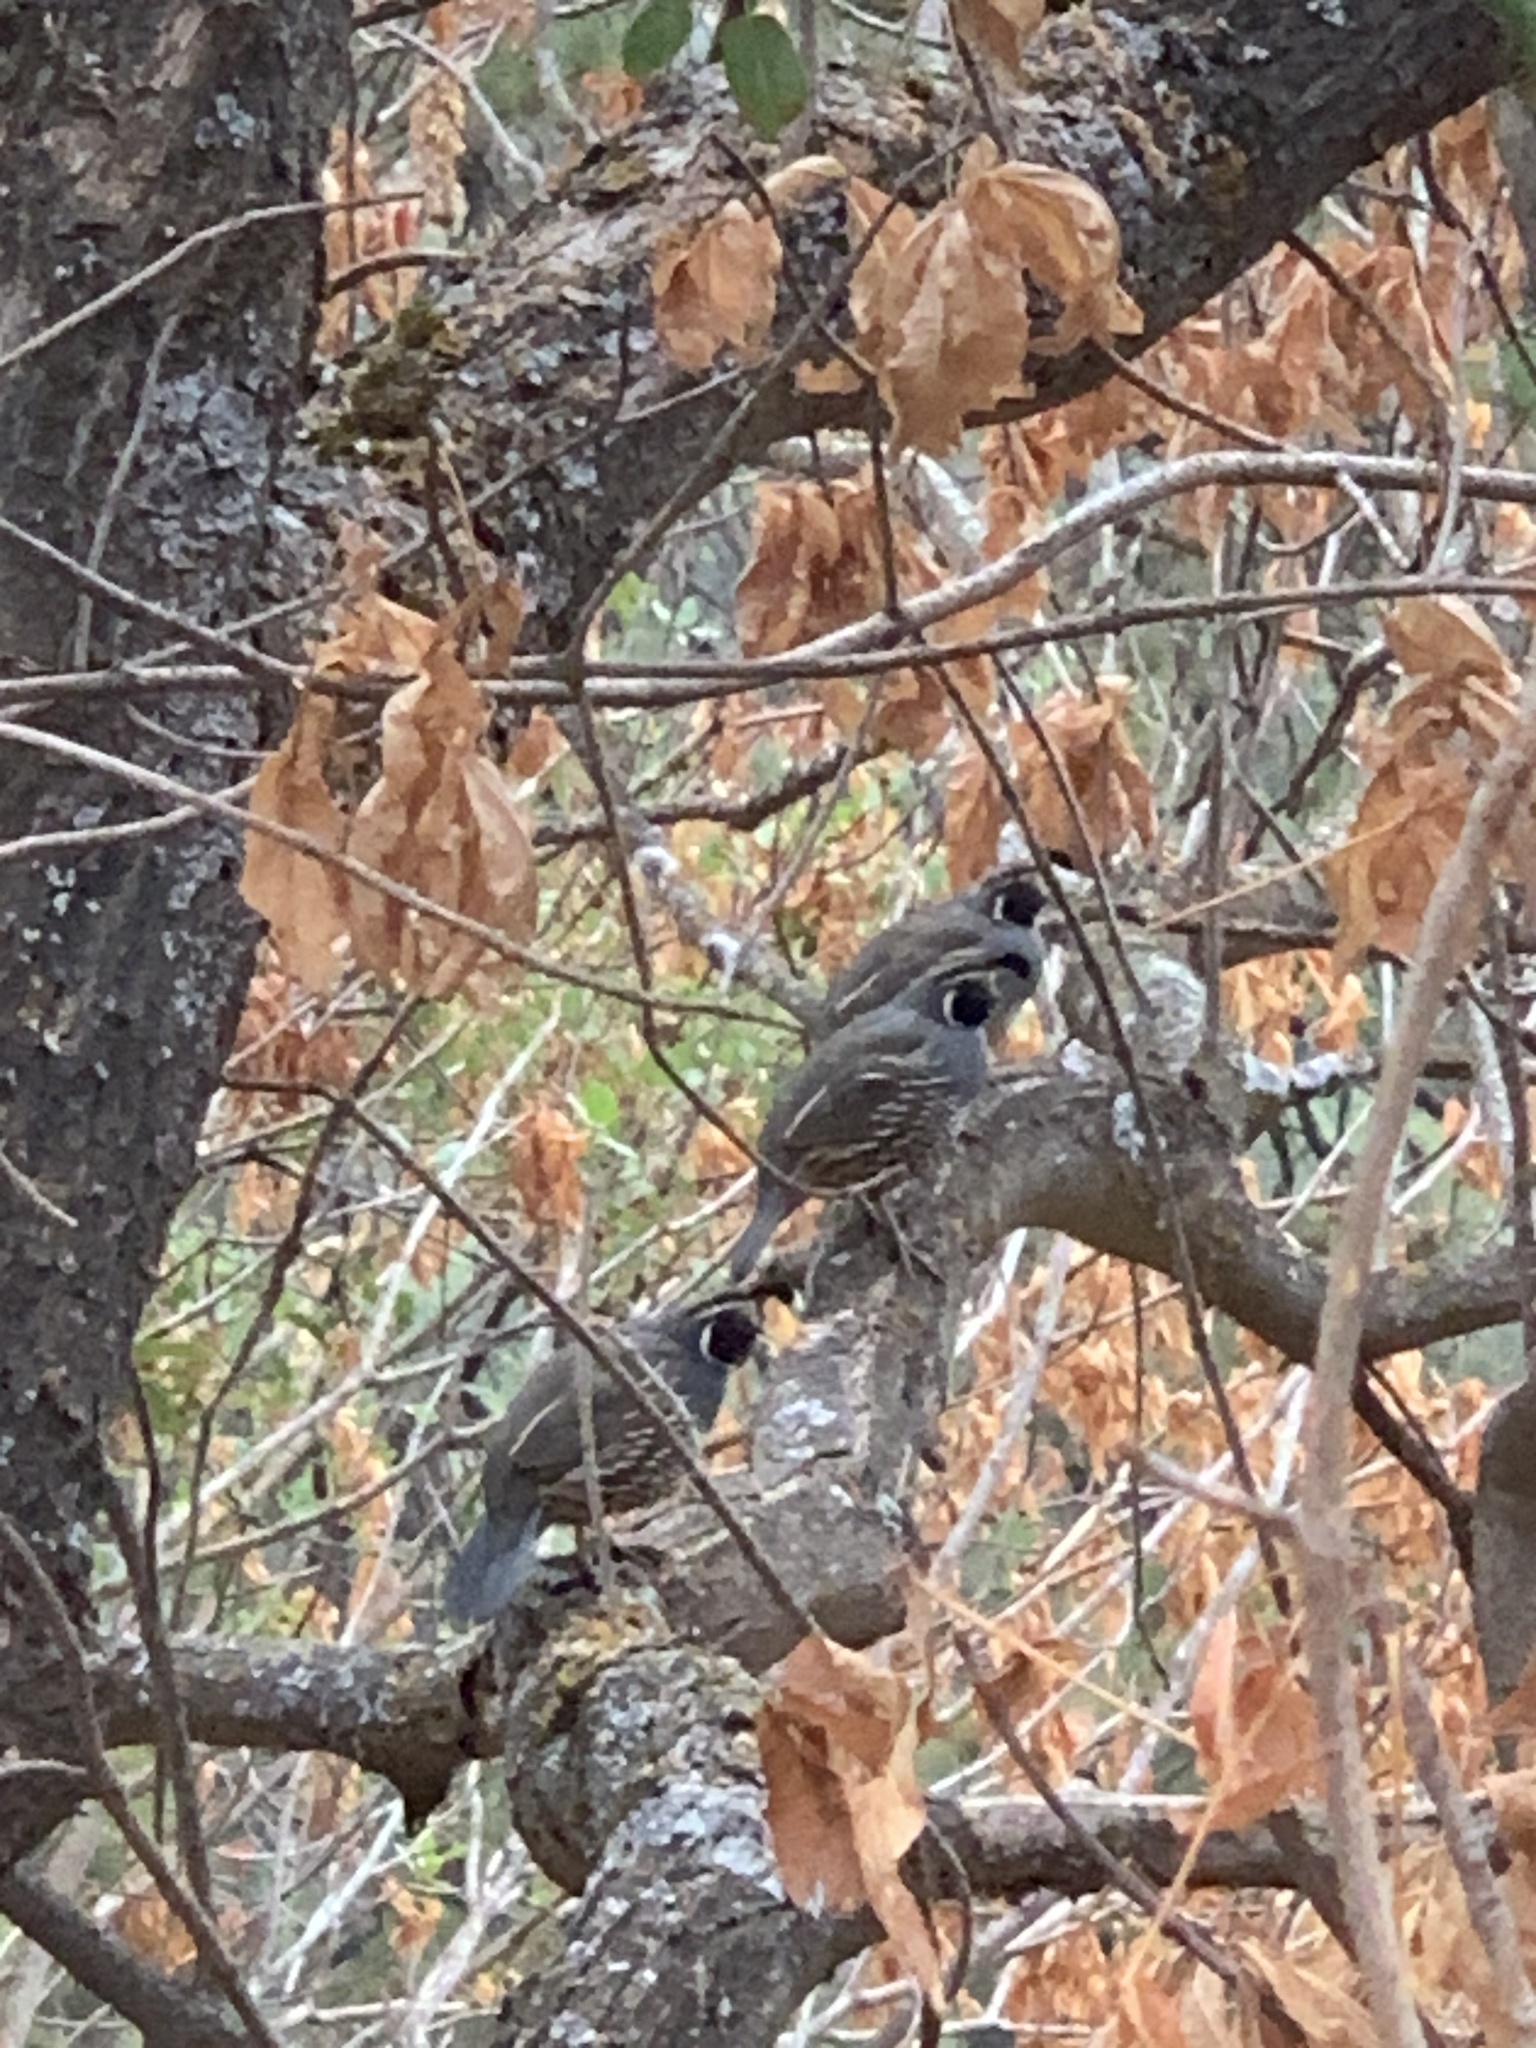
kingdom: Animalia
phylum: Chordata
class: Aves
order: Galliformes
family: Odontophoridae
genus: Callipepla
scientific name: Callipepla californica
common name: California quail
